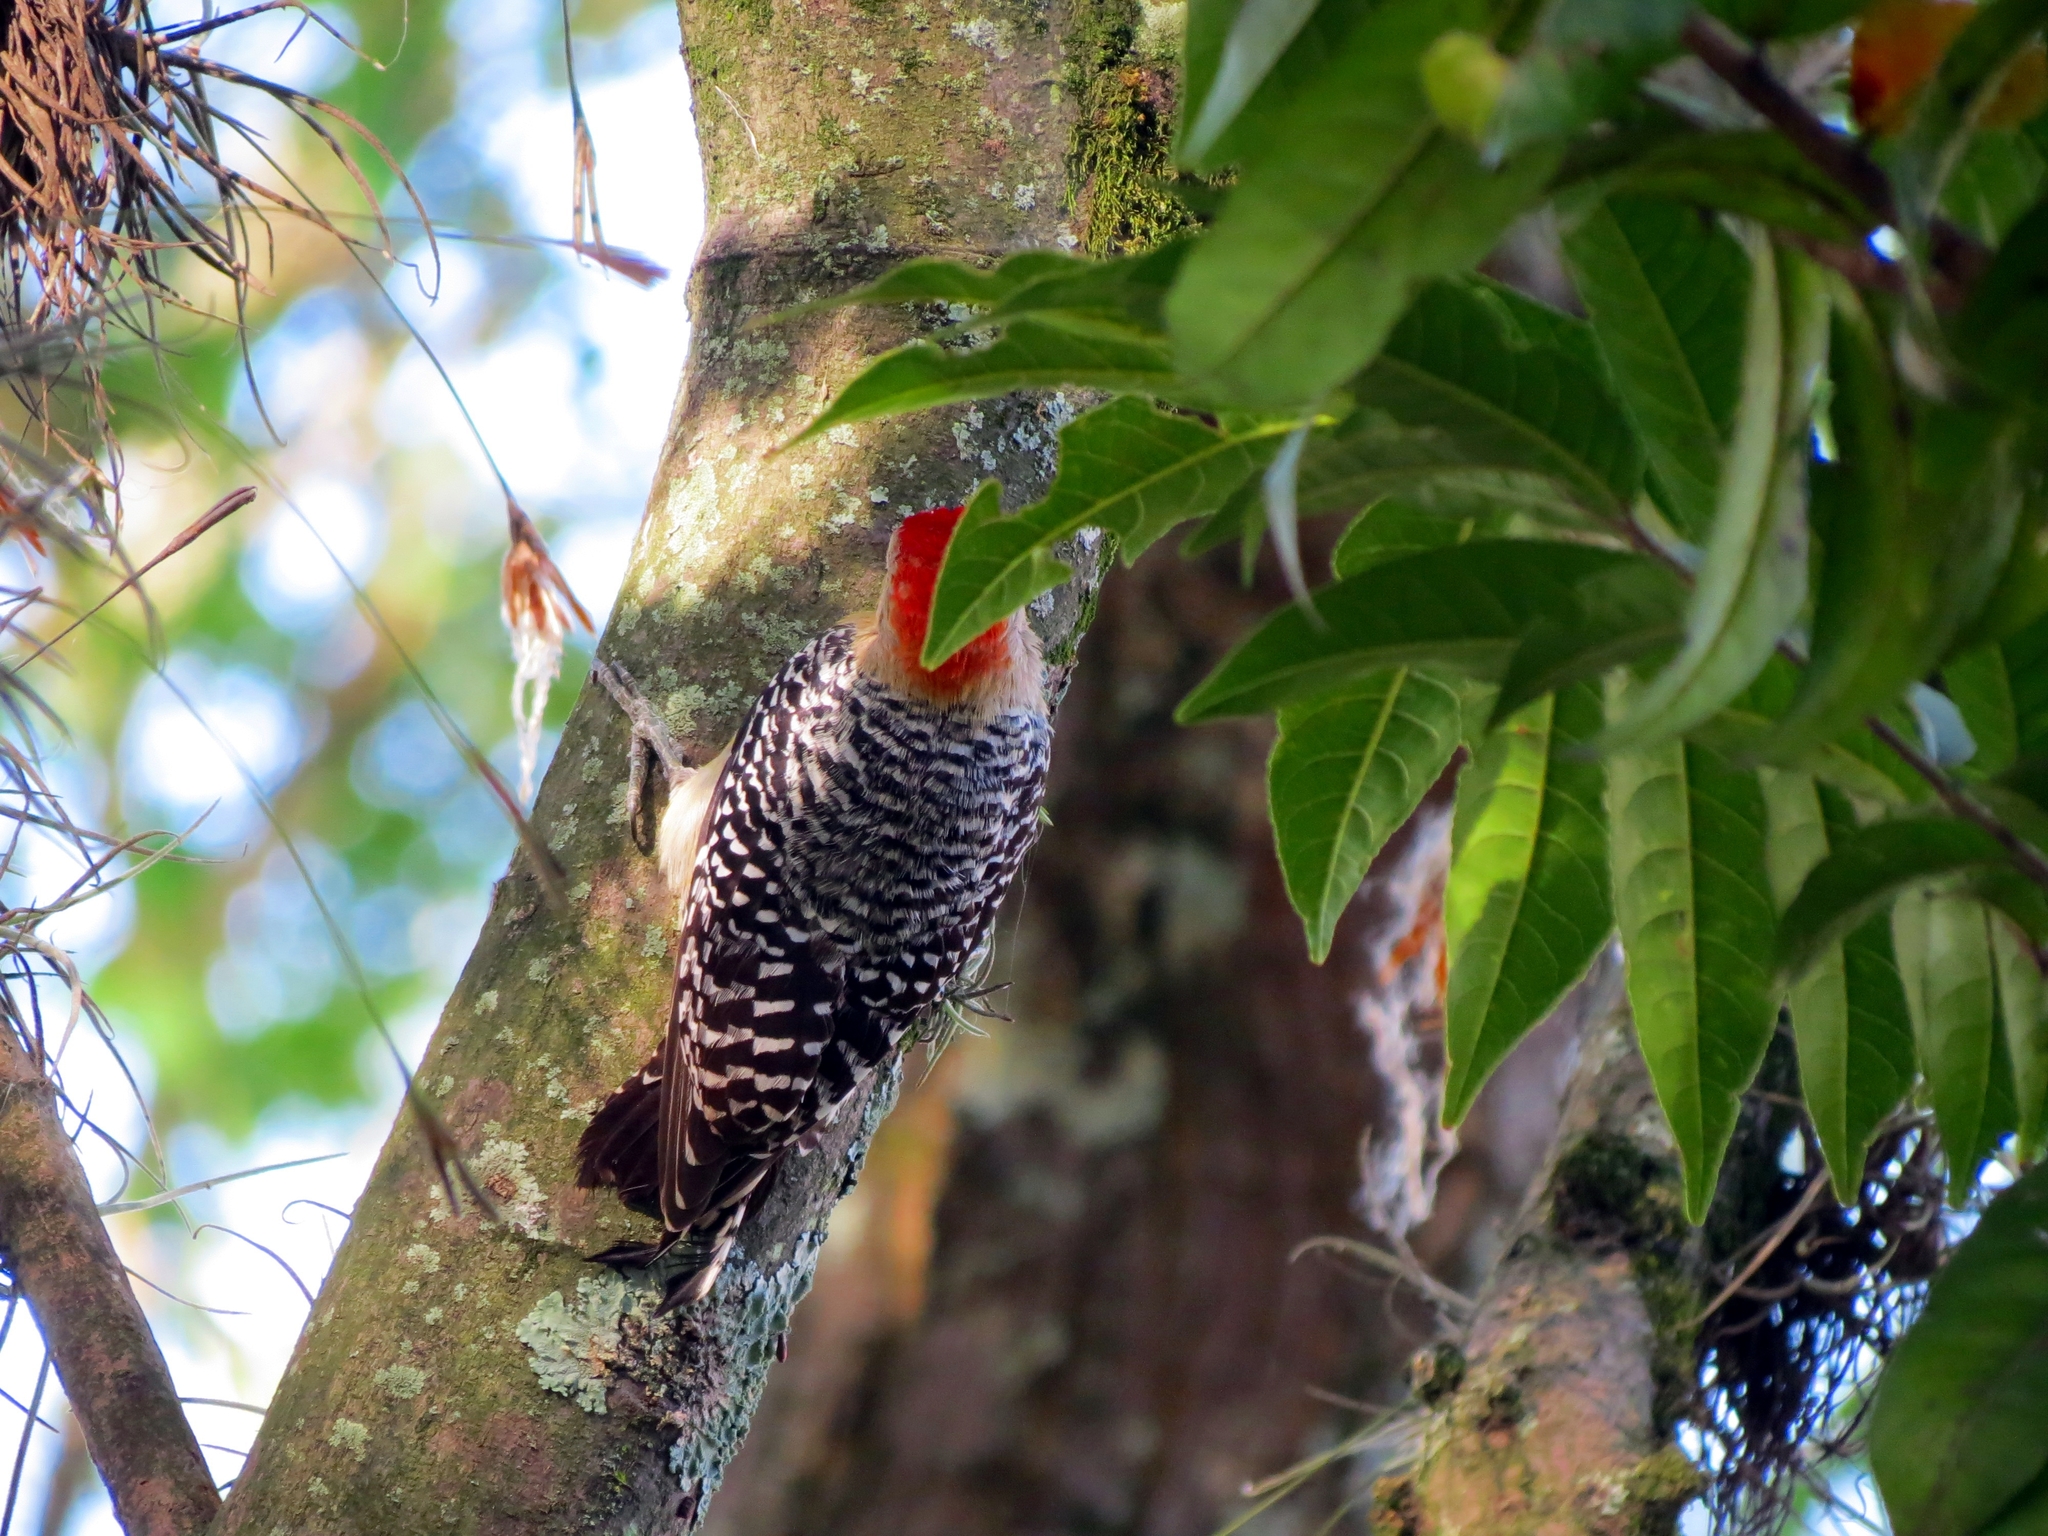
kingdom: Animalia
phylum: Chordata
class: Aves
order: Piciformes
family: Picidae
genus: Melanerpes
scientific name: Melanerpes rubricapillus
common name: Red-crowned woodpecker
